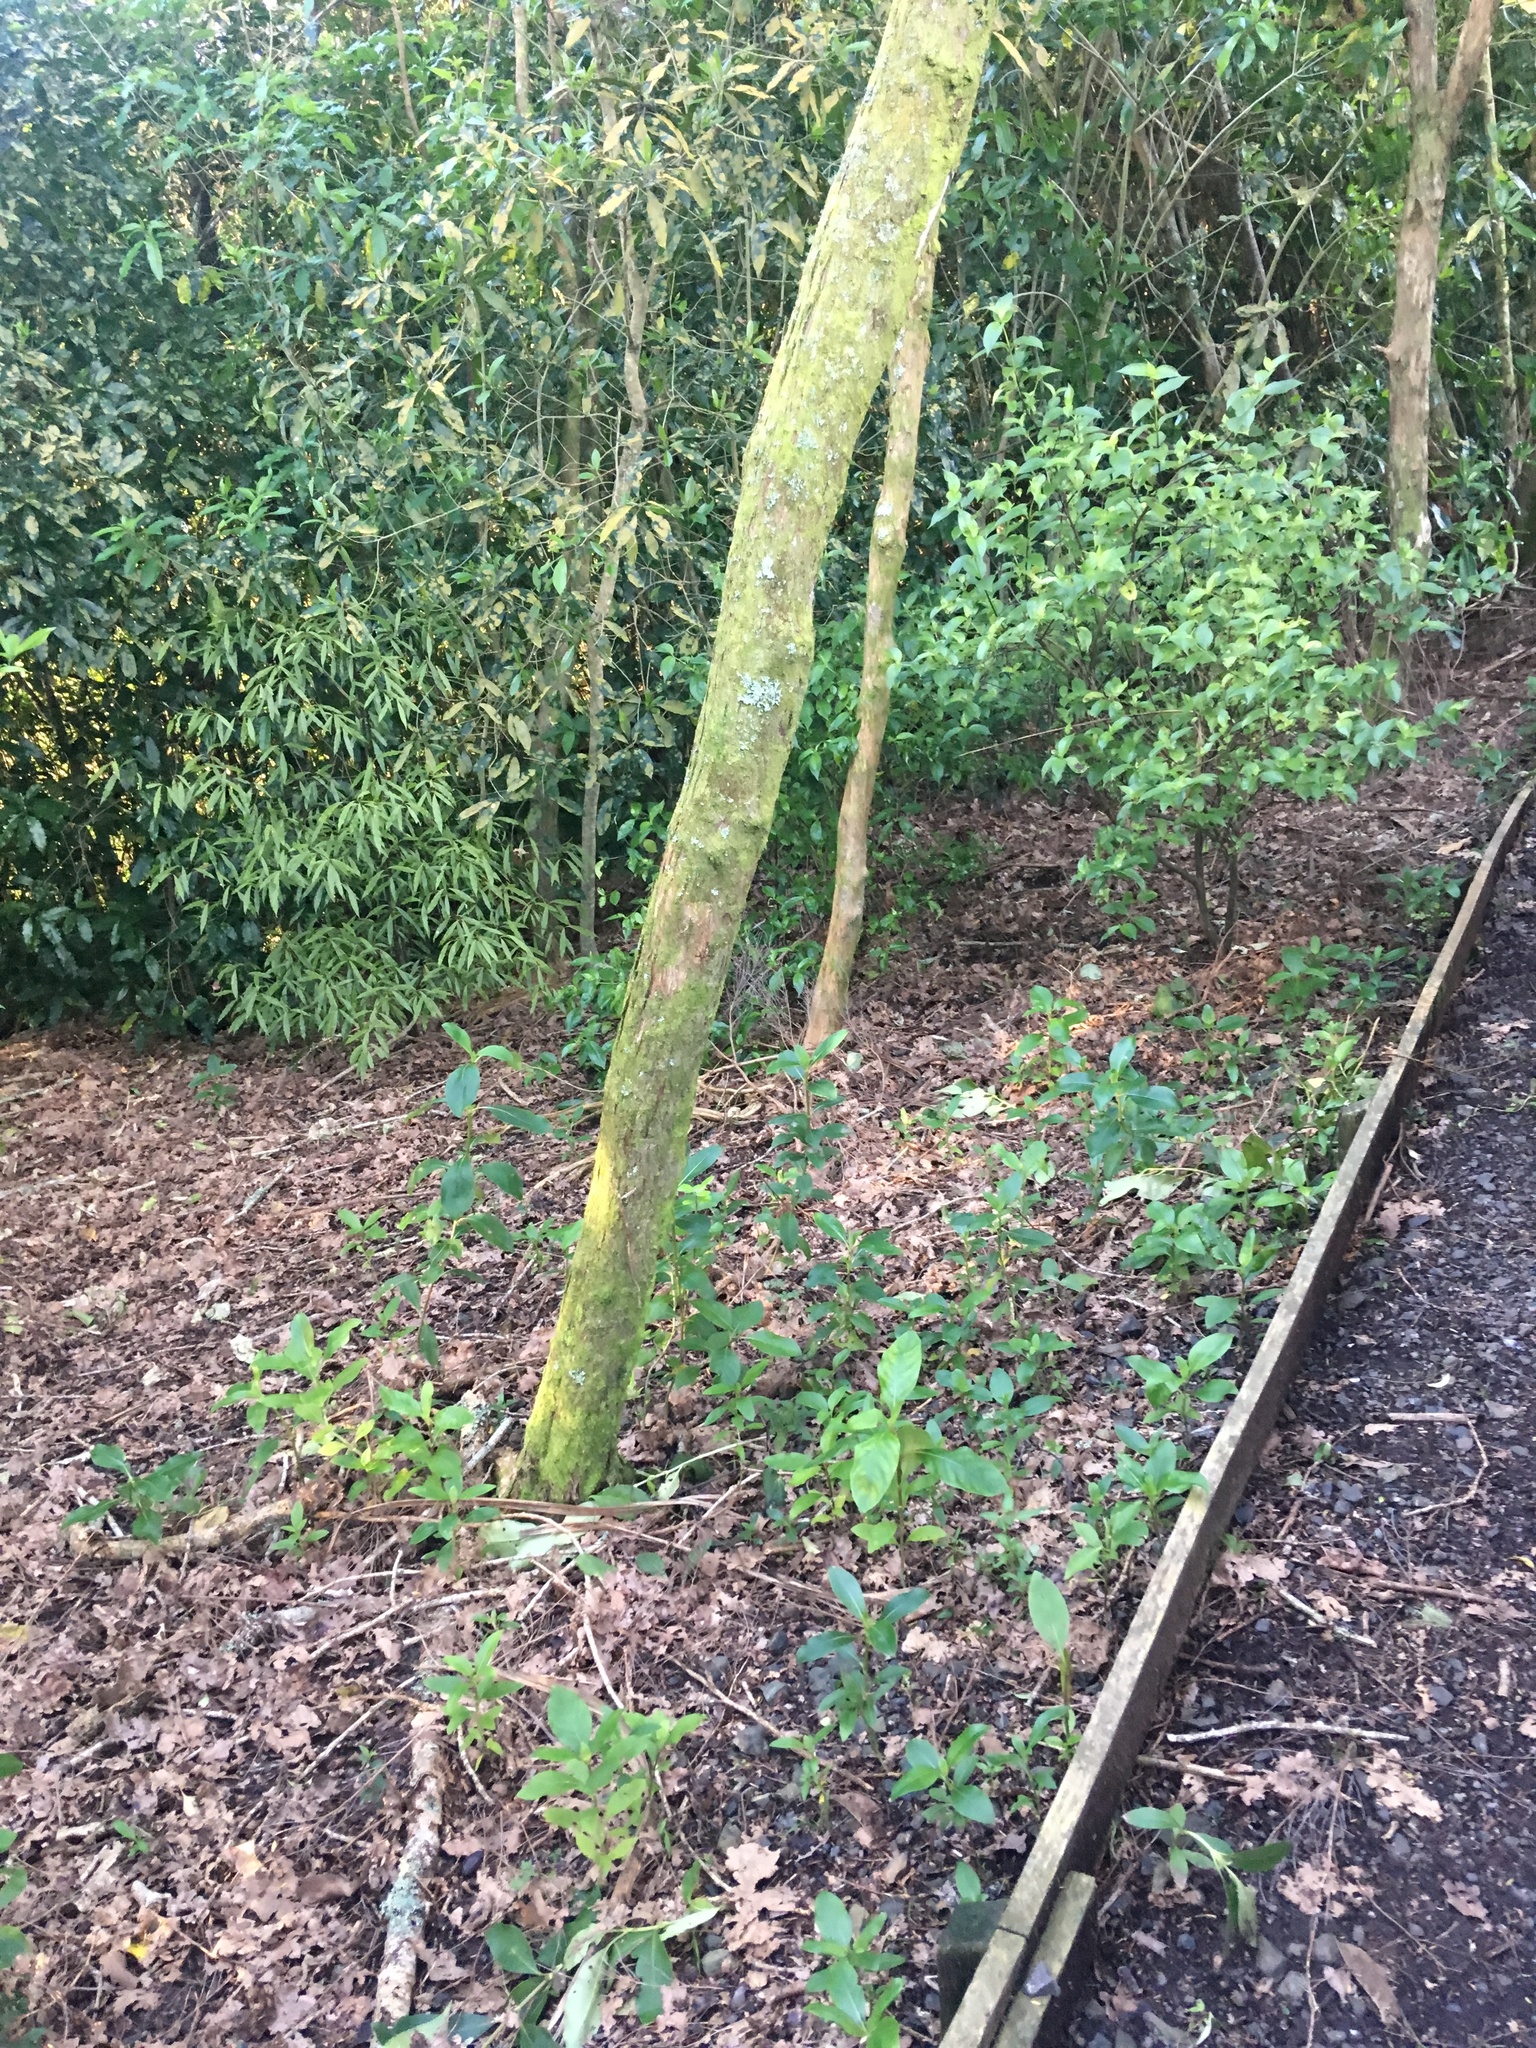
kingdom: Plantae
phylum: Tracheophyta
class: Magnoliopsida
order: Laurales
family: Lauraceae
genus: Beilschmiedia
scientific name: Beilschmiedia tawa
